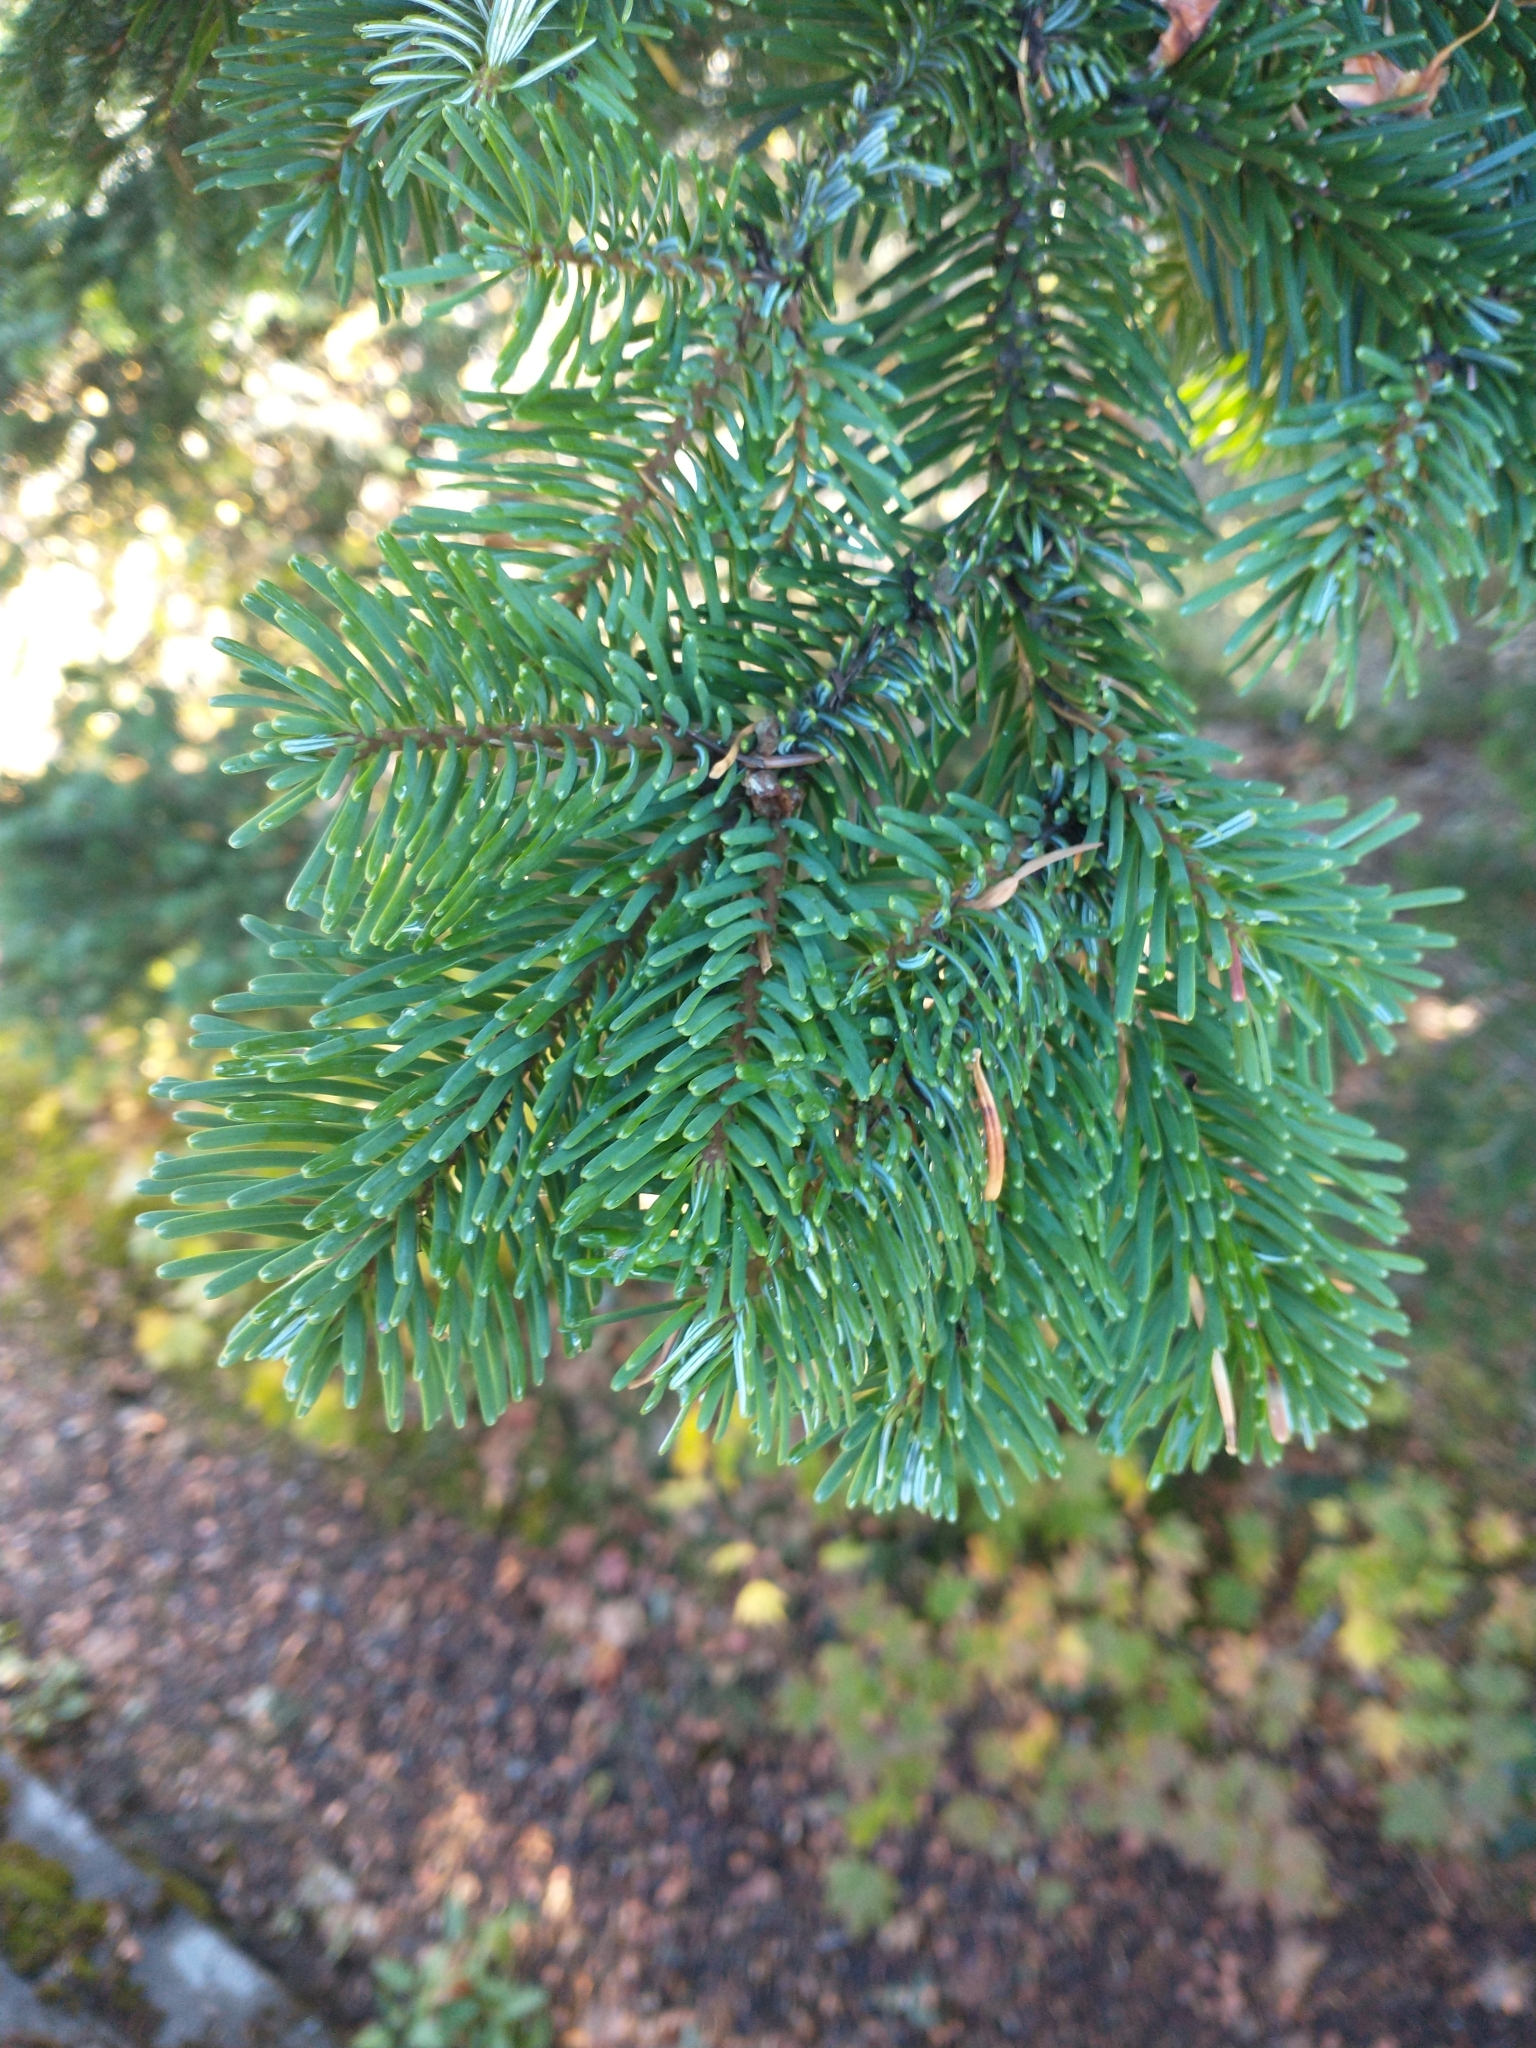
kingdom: Plantae
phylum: Tracheophyta
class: Pinopsida
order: Pinales
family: Pinaceae
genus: Abies
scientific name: Abies amabilis
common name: Pacific silver fir
